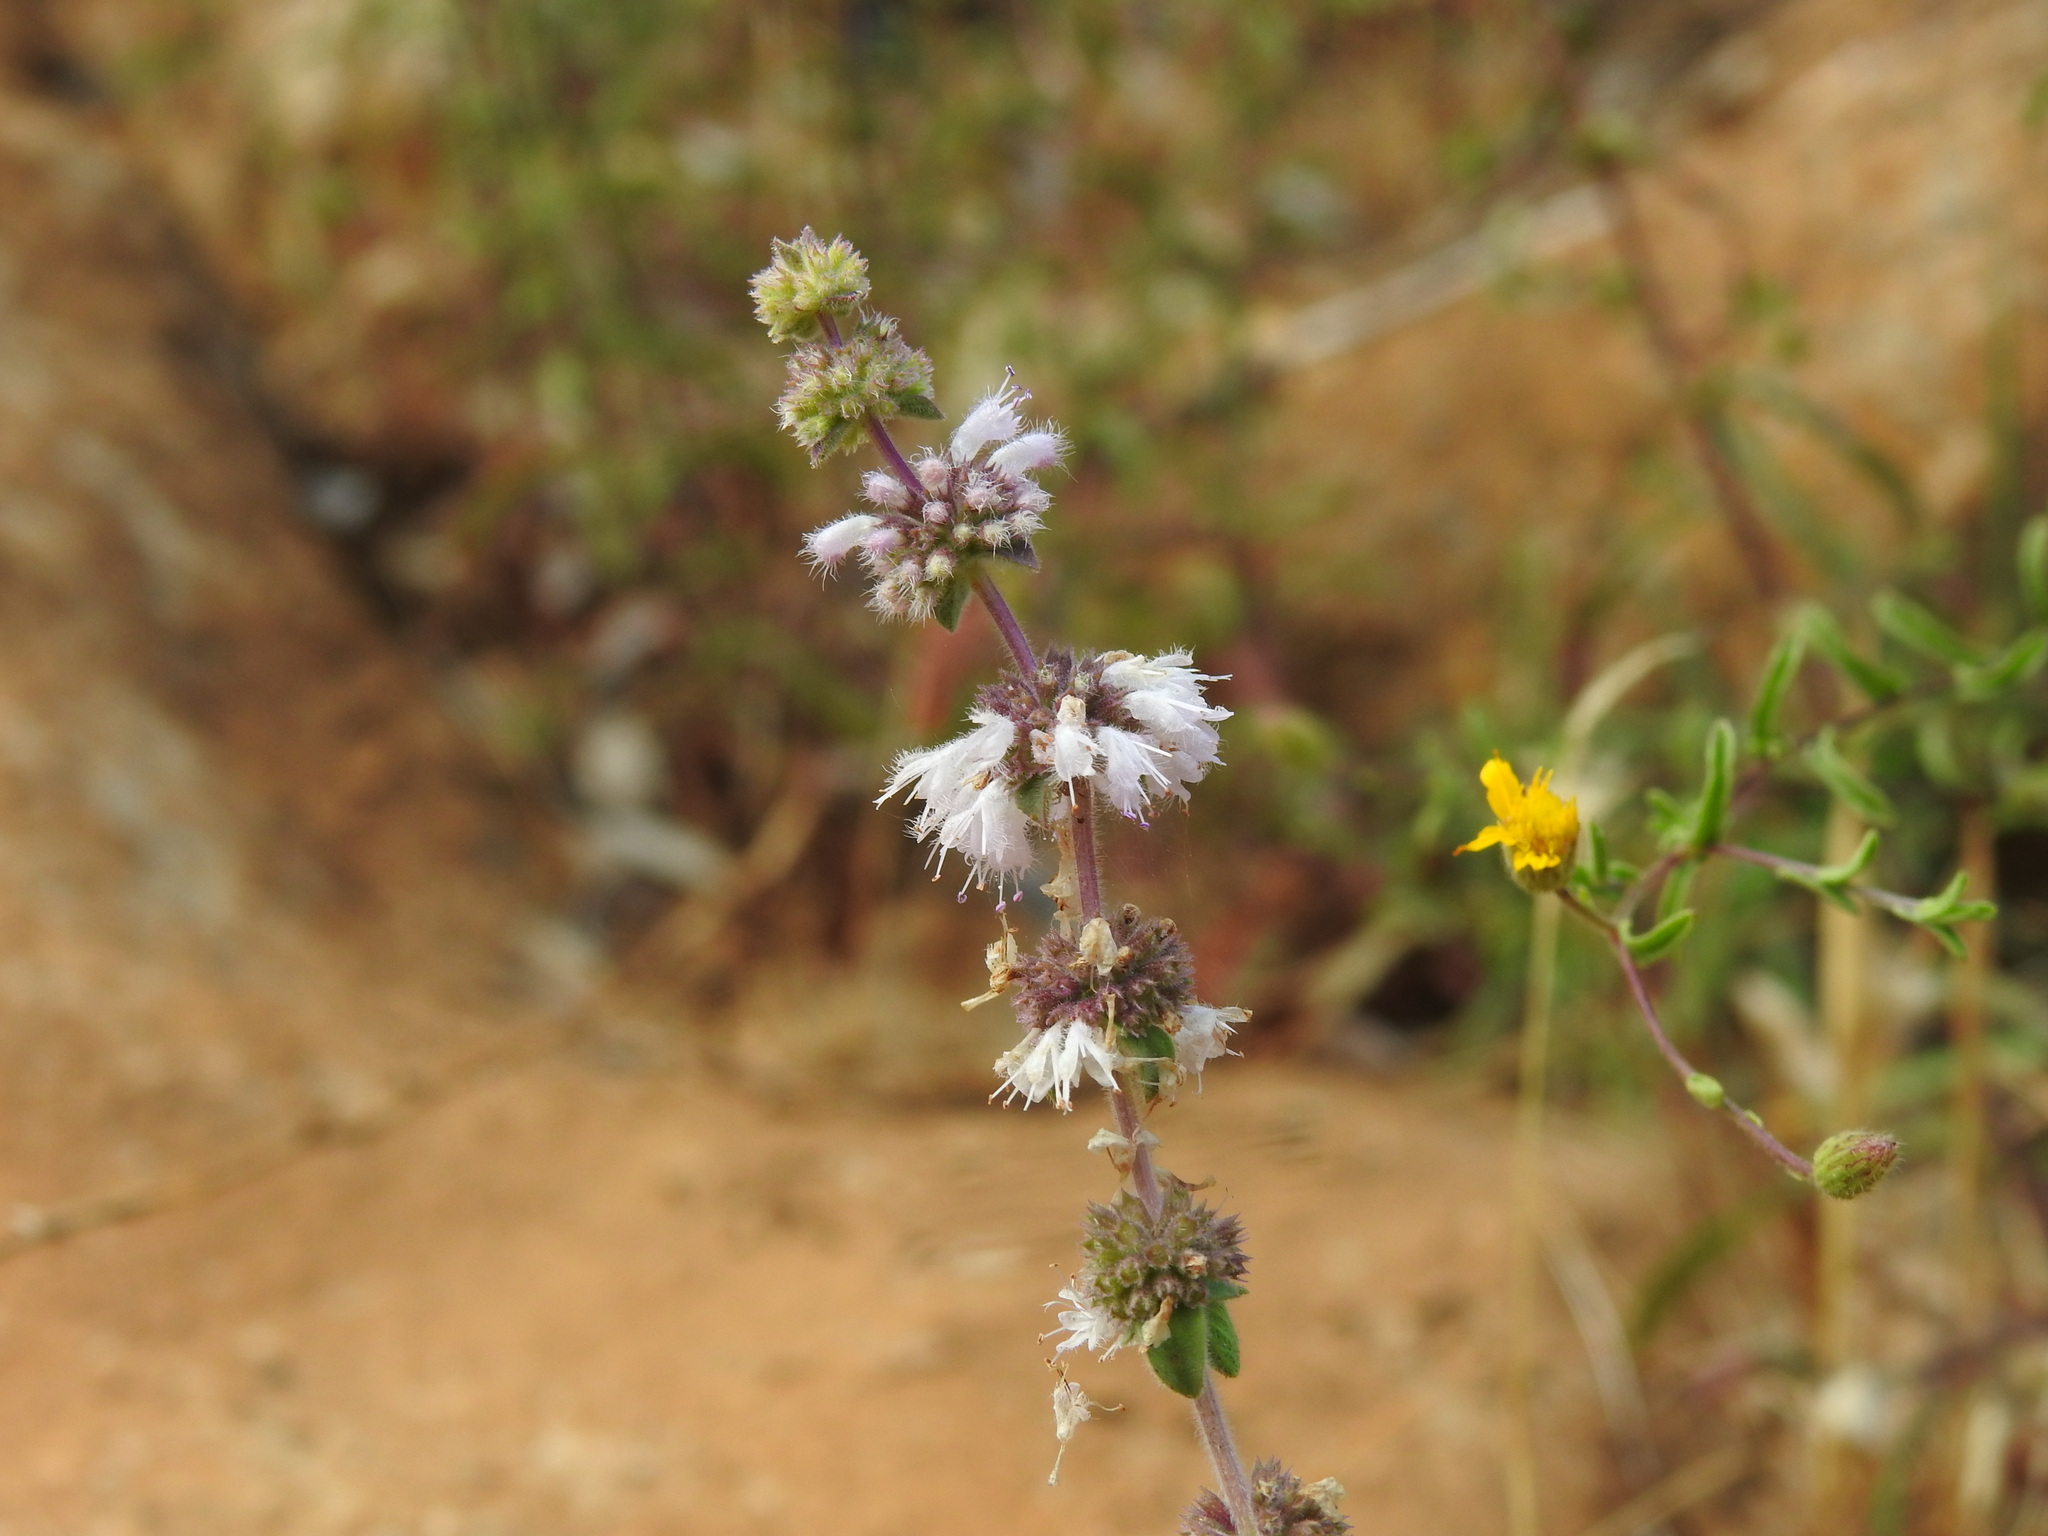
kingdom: Plantae
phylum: Tracheophyta
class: Magnoliopsida
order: Lamiales
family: Lamiaceae
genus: Mentha
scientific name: Mentha pulegium
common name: Pennyroyal
